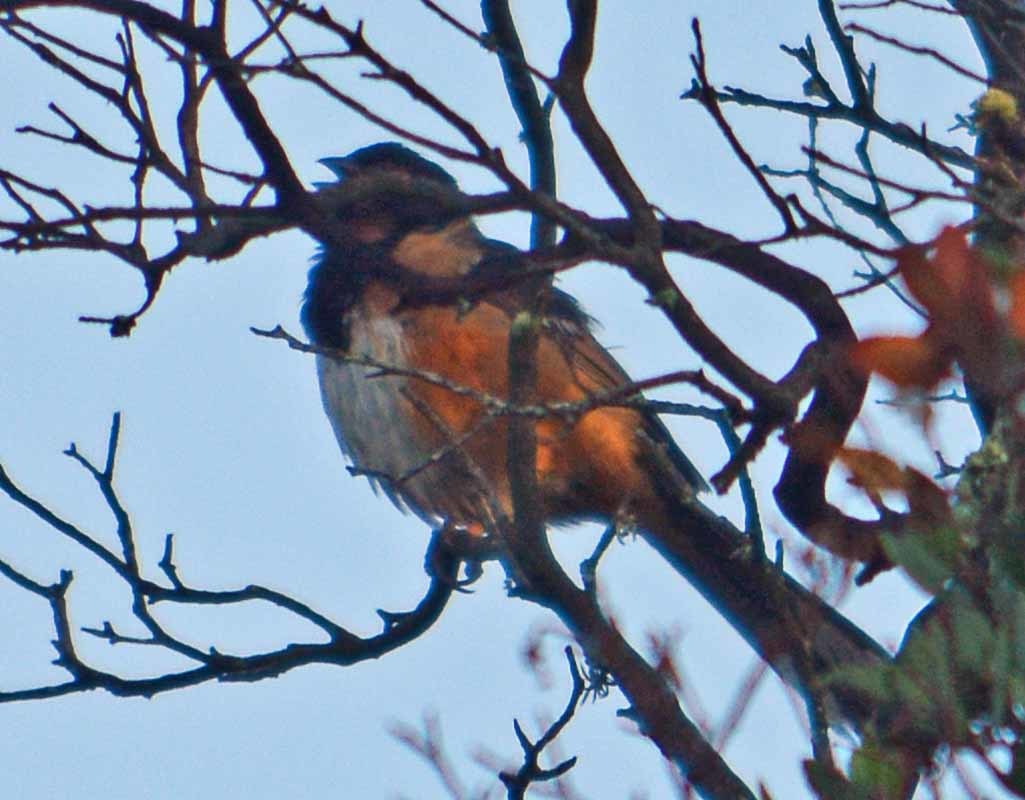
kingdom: Animalia
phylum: Chordata
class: Aves
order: Passeriformes
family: Passerellidae
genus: Pipilo
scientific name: Pipilo maculatus
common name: Spotted towhee
